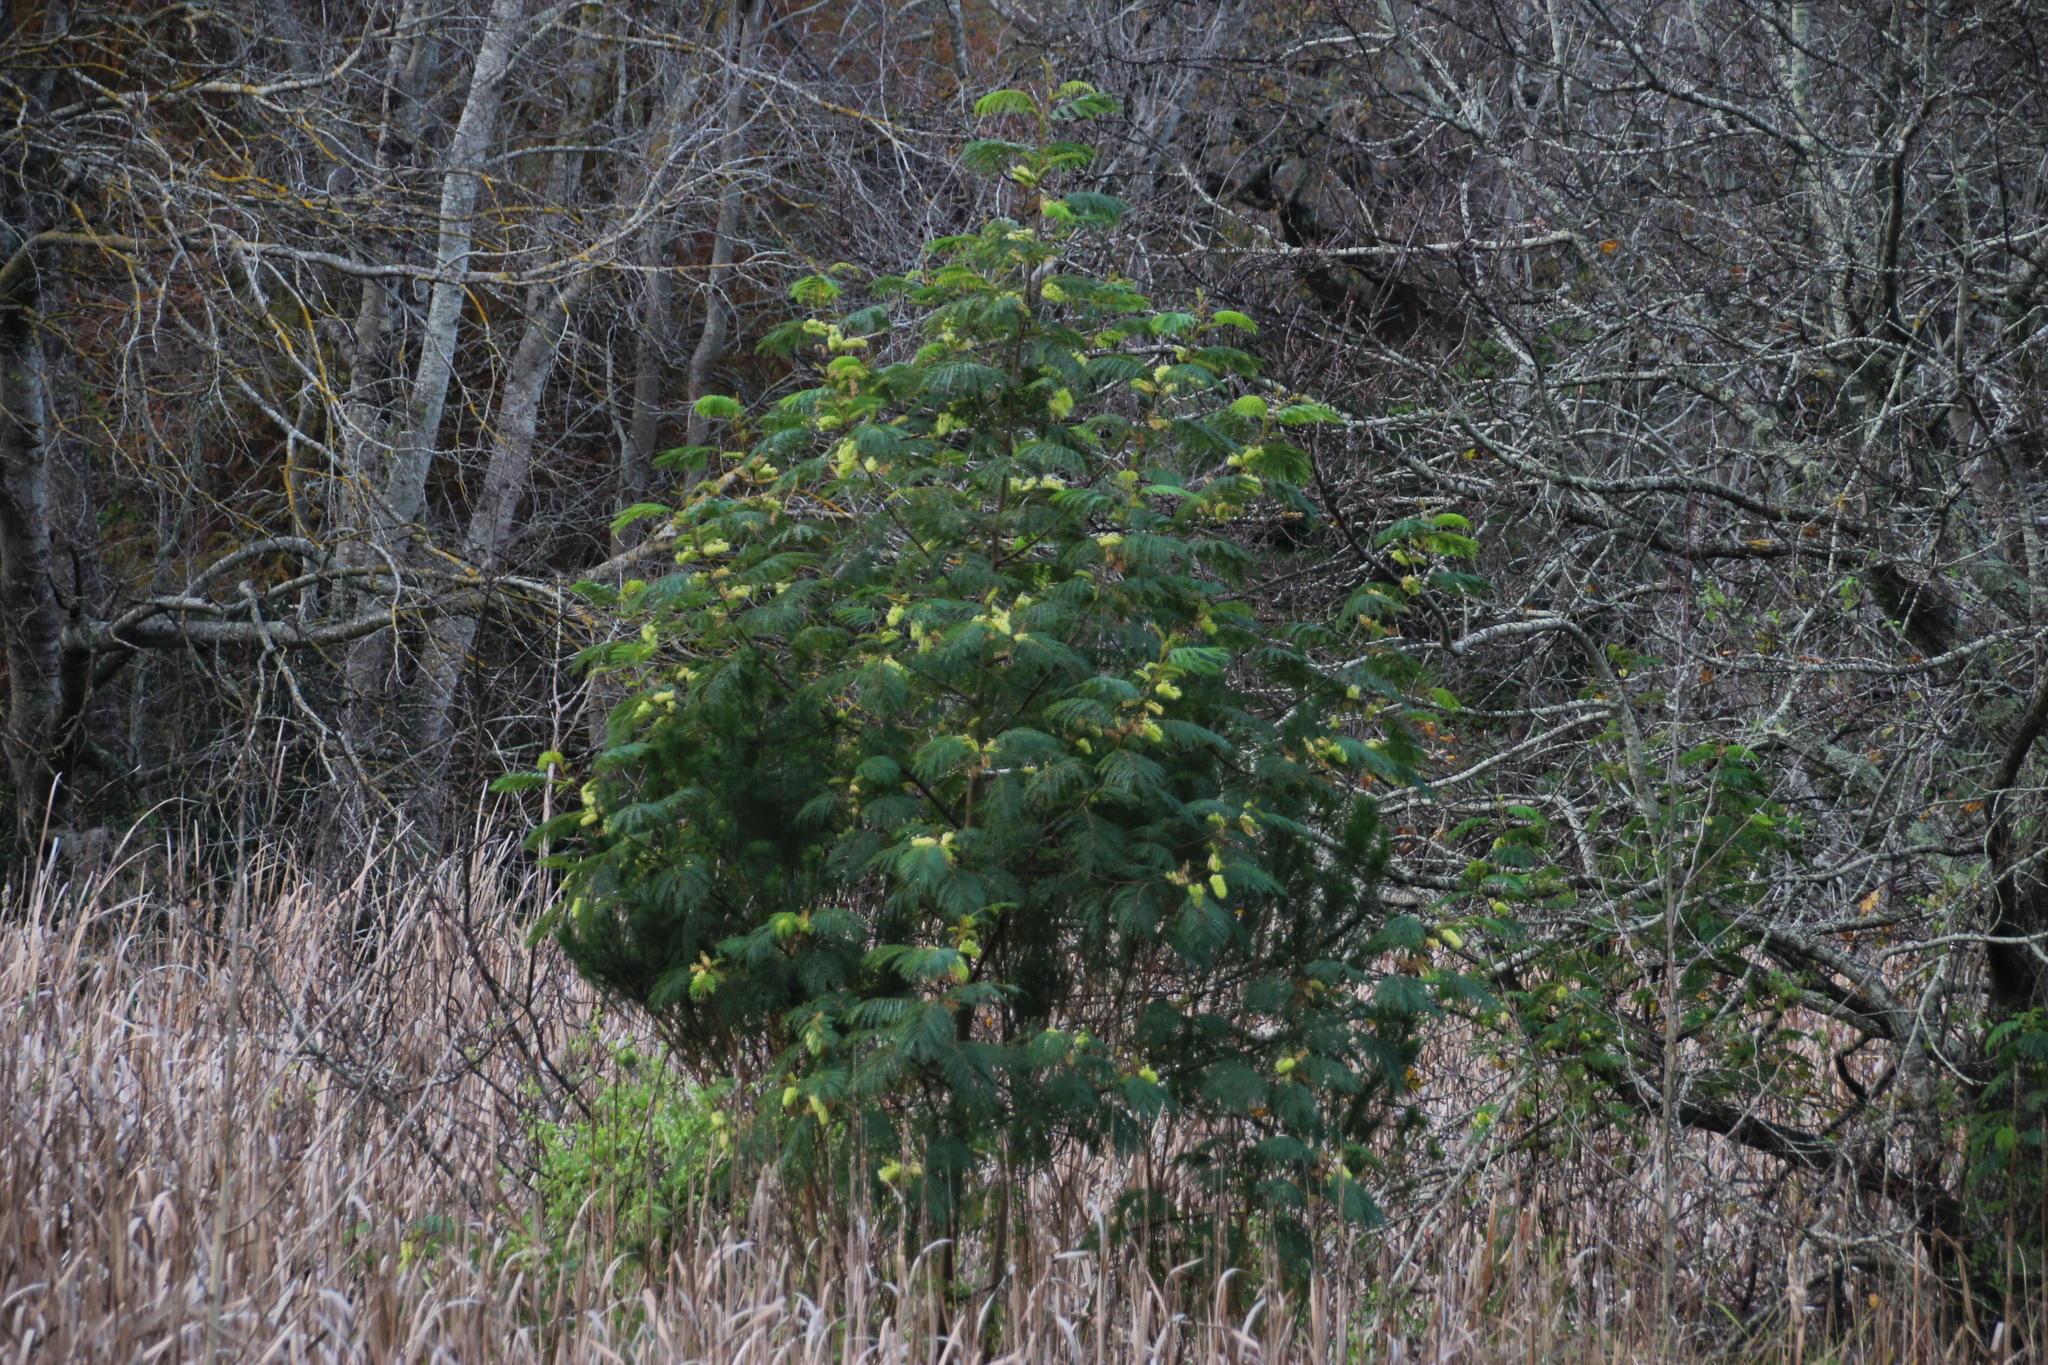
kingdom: Plantae
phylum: Tracheophyta
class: Magnoliopsida
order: Fabales
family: Fabaceae
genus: Paraserianthes
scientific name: Paraserianthes lophantha
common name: Plume albizia
